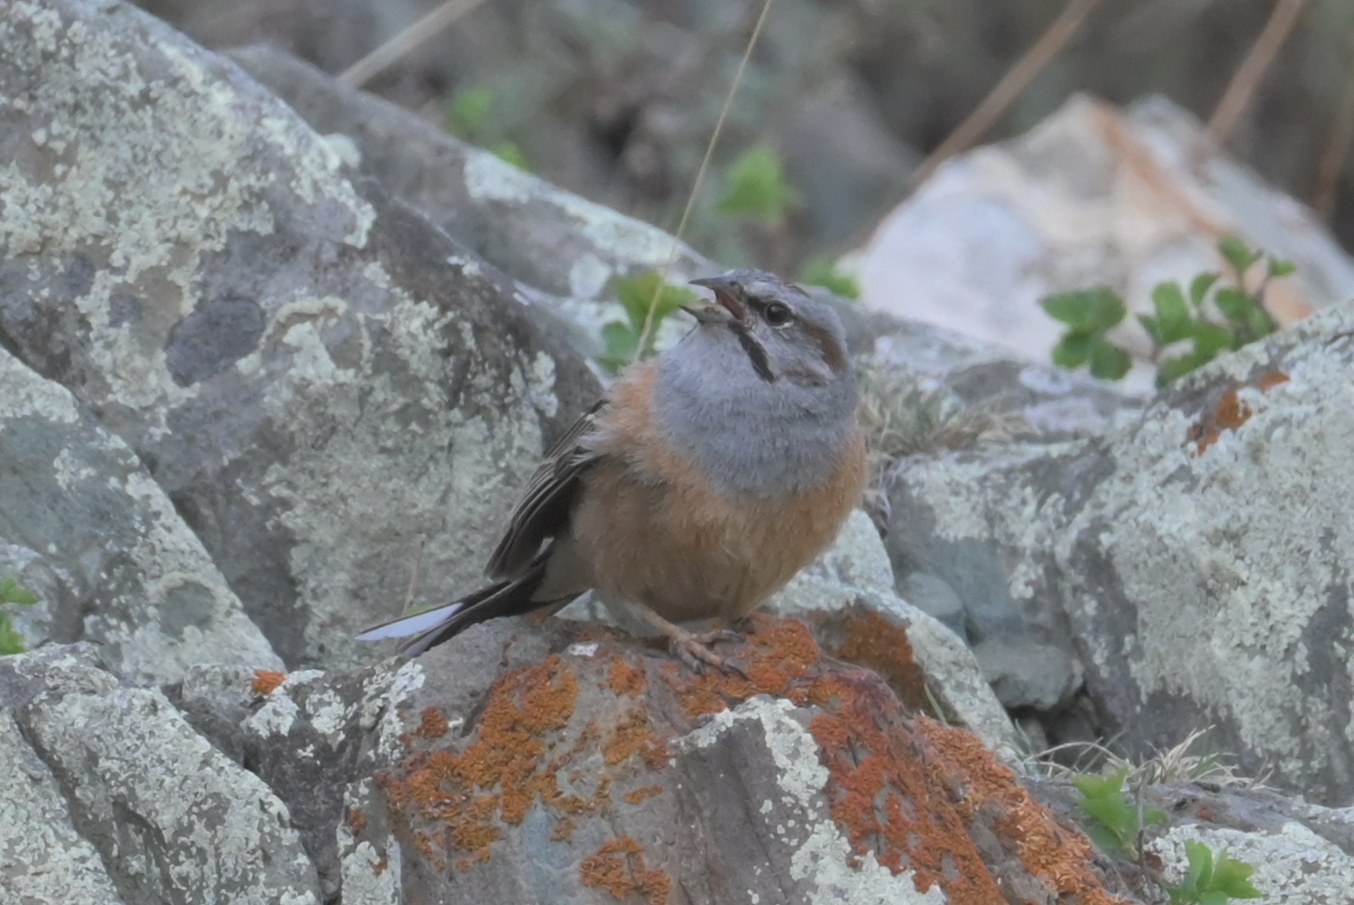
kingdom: Animalia
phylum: Chordata
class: Aves
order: Passeriformes
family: Emberizidae
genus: Emberiza
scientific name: Emberiza godlewskii
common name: Godlewski's bunting
